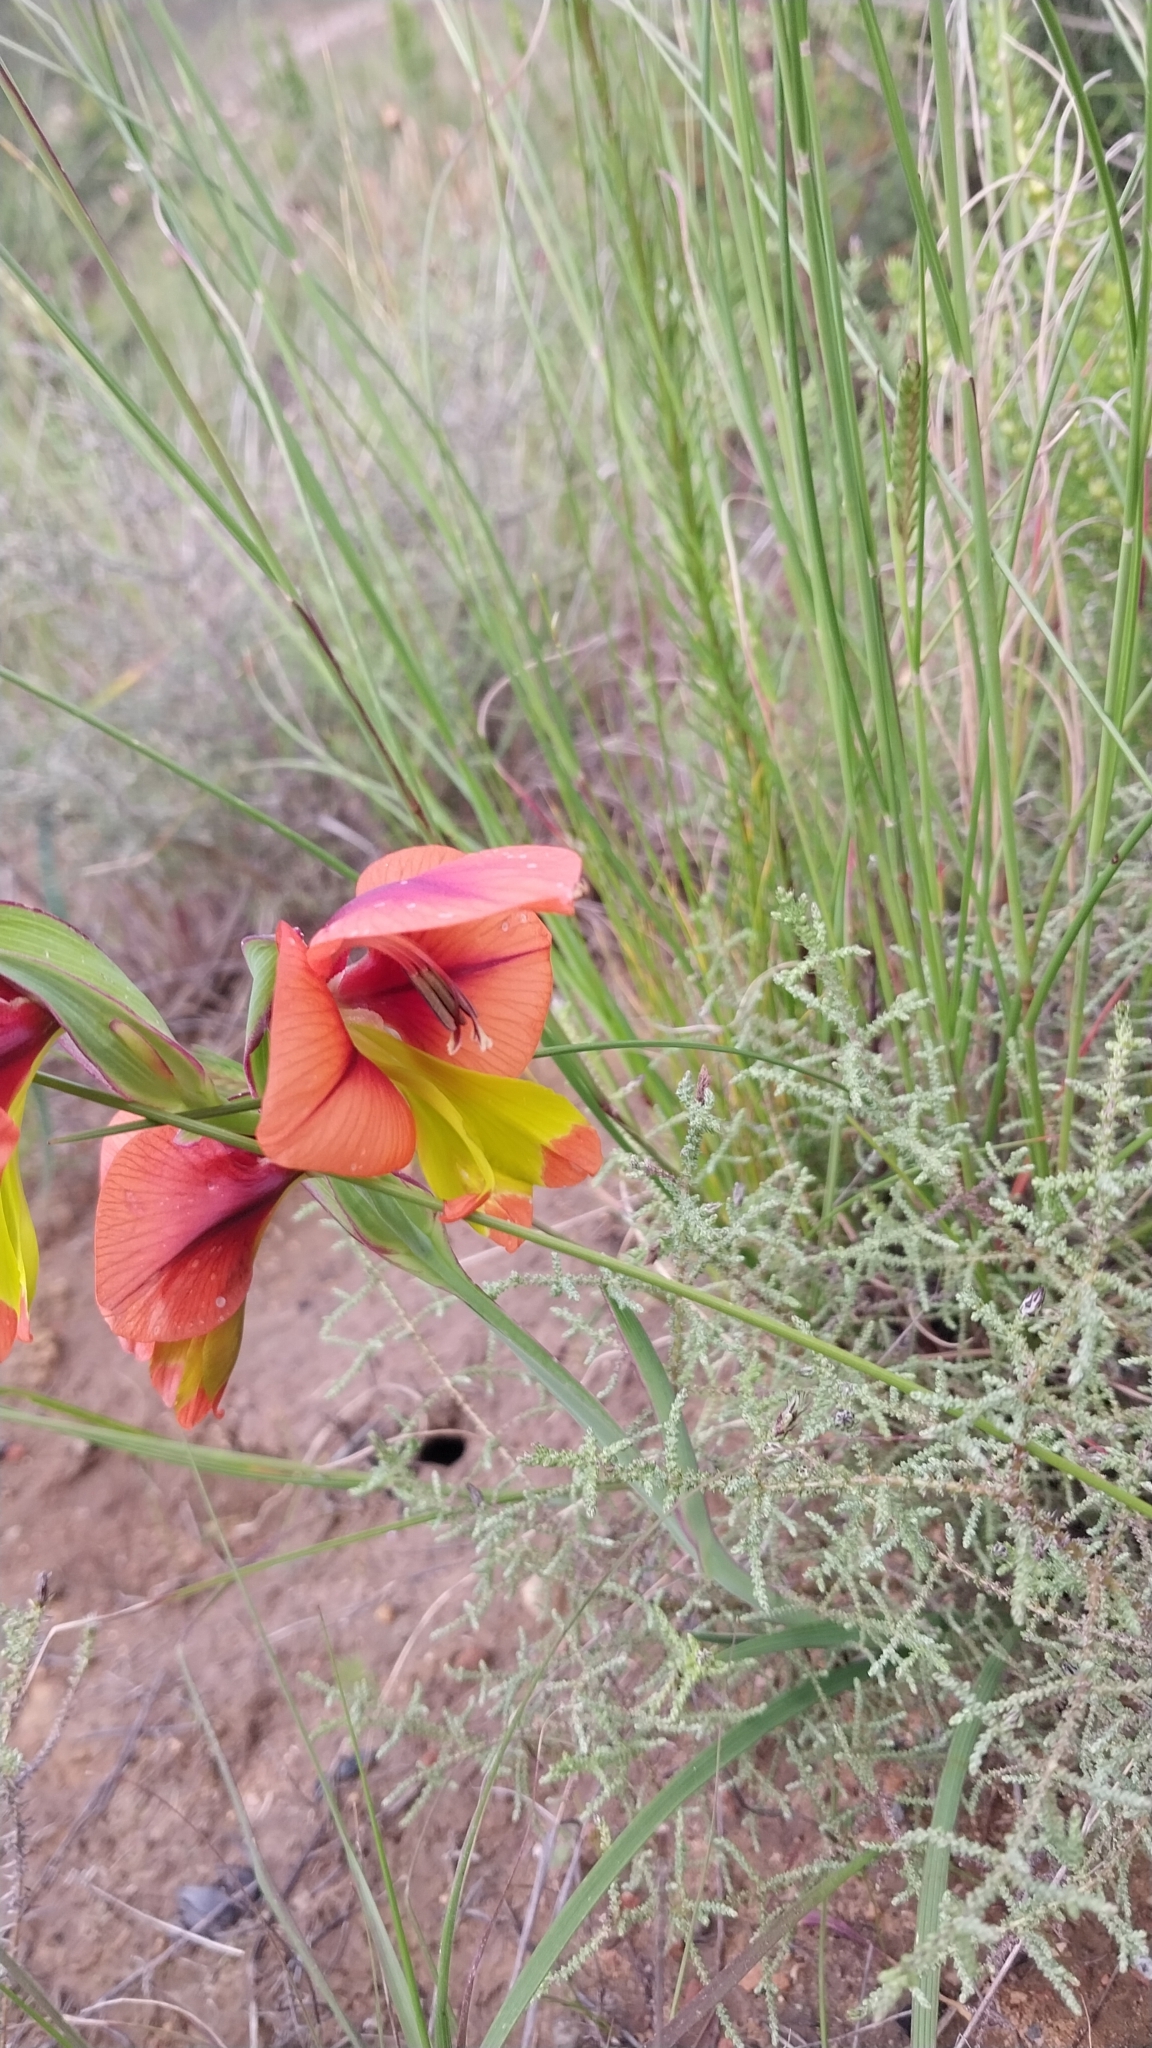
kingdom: Plantae
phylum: Tracheophyta
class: Liliopsida
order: Asparagales
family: Iridaceae
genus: Gladiolus
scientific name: Gladiolus alatus
